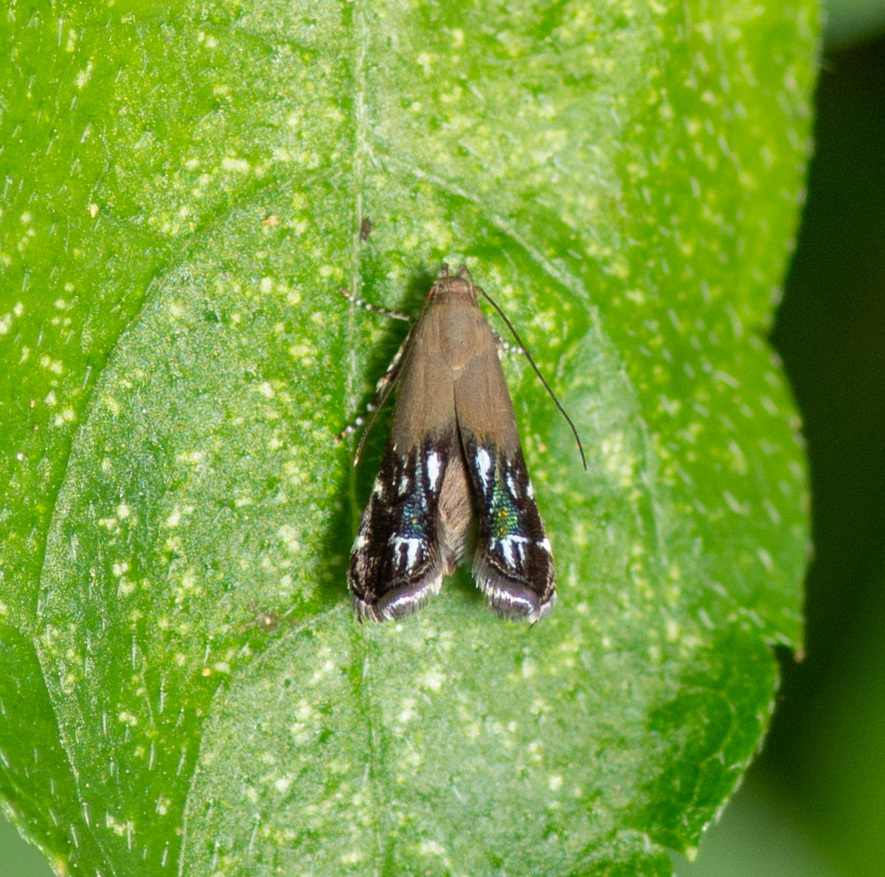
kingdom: Animalia
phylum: Arthropoda
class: Insecta
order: Lepidoptera
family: Gelechiidae
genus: Anacampsis
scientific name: Anacampsis levipedella
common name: Silver-dashed anacampsis
